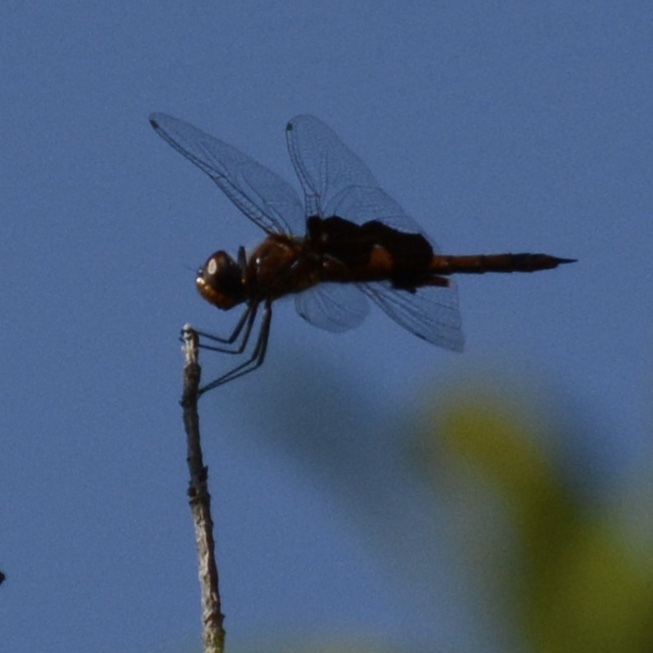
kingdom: Animalia
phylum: Arthropoda
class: Insecta
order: Odonata
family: Libellulidae
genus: Tramea
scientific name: Tramea onusta
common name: Red saddlebags
